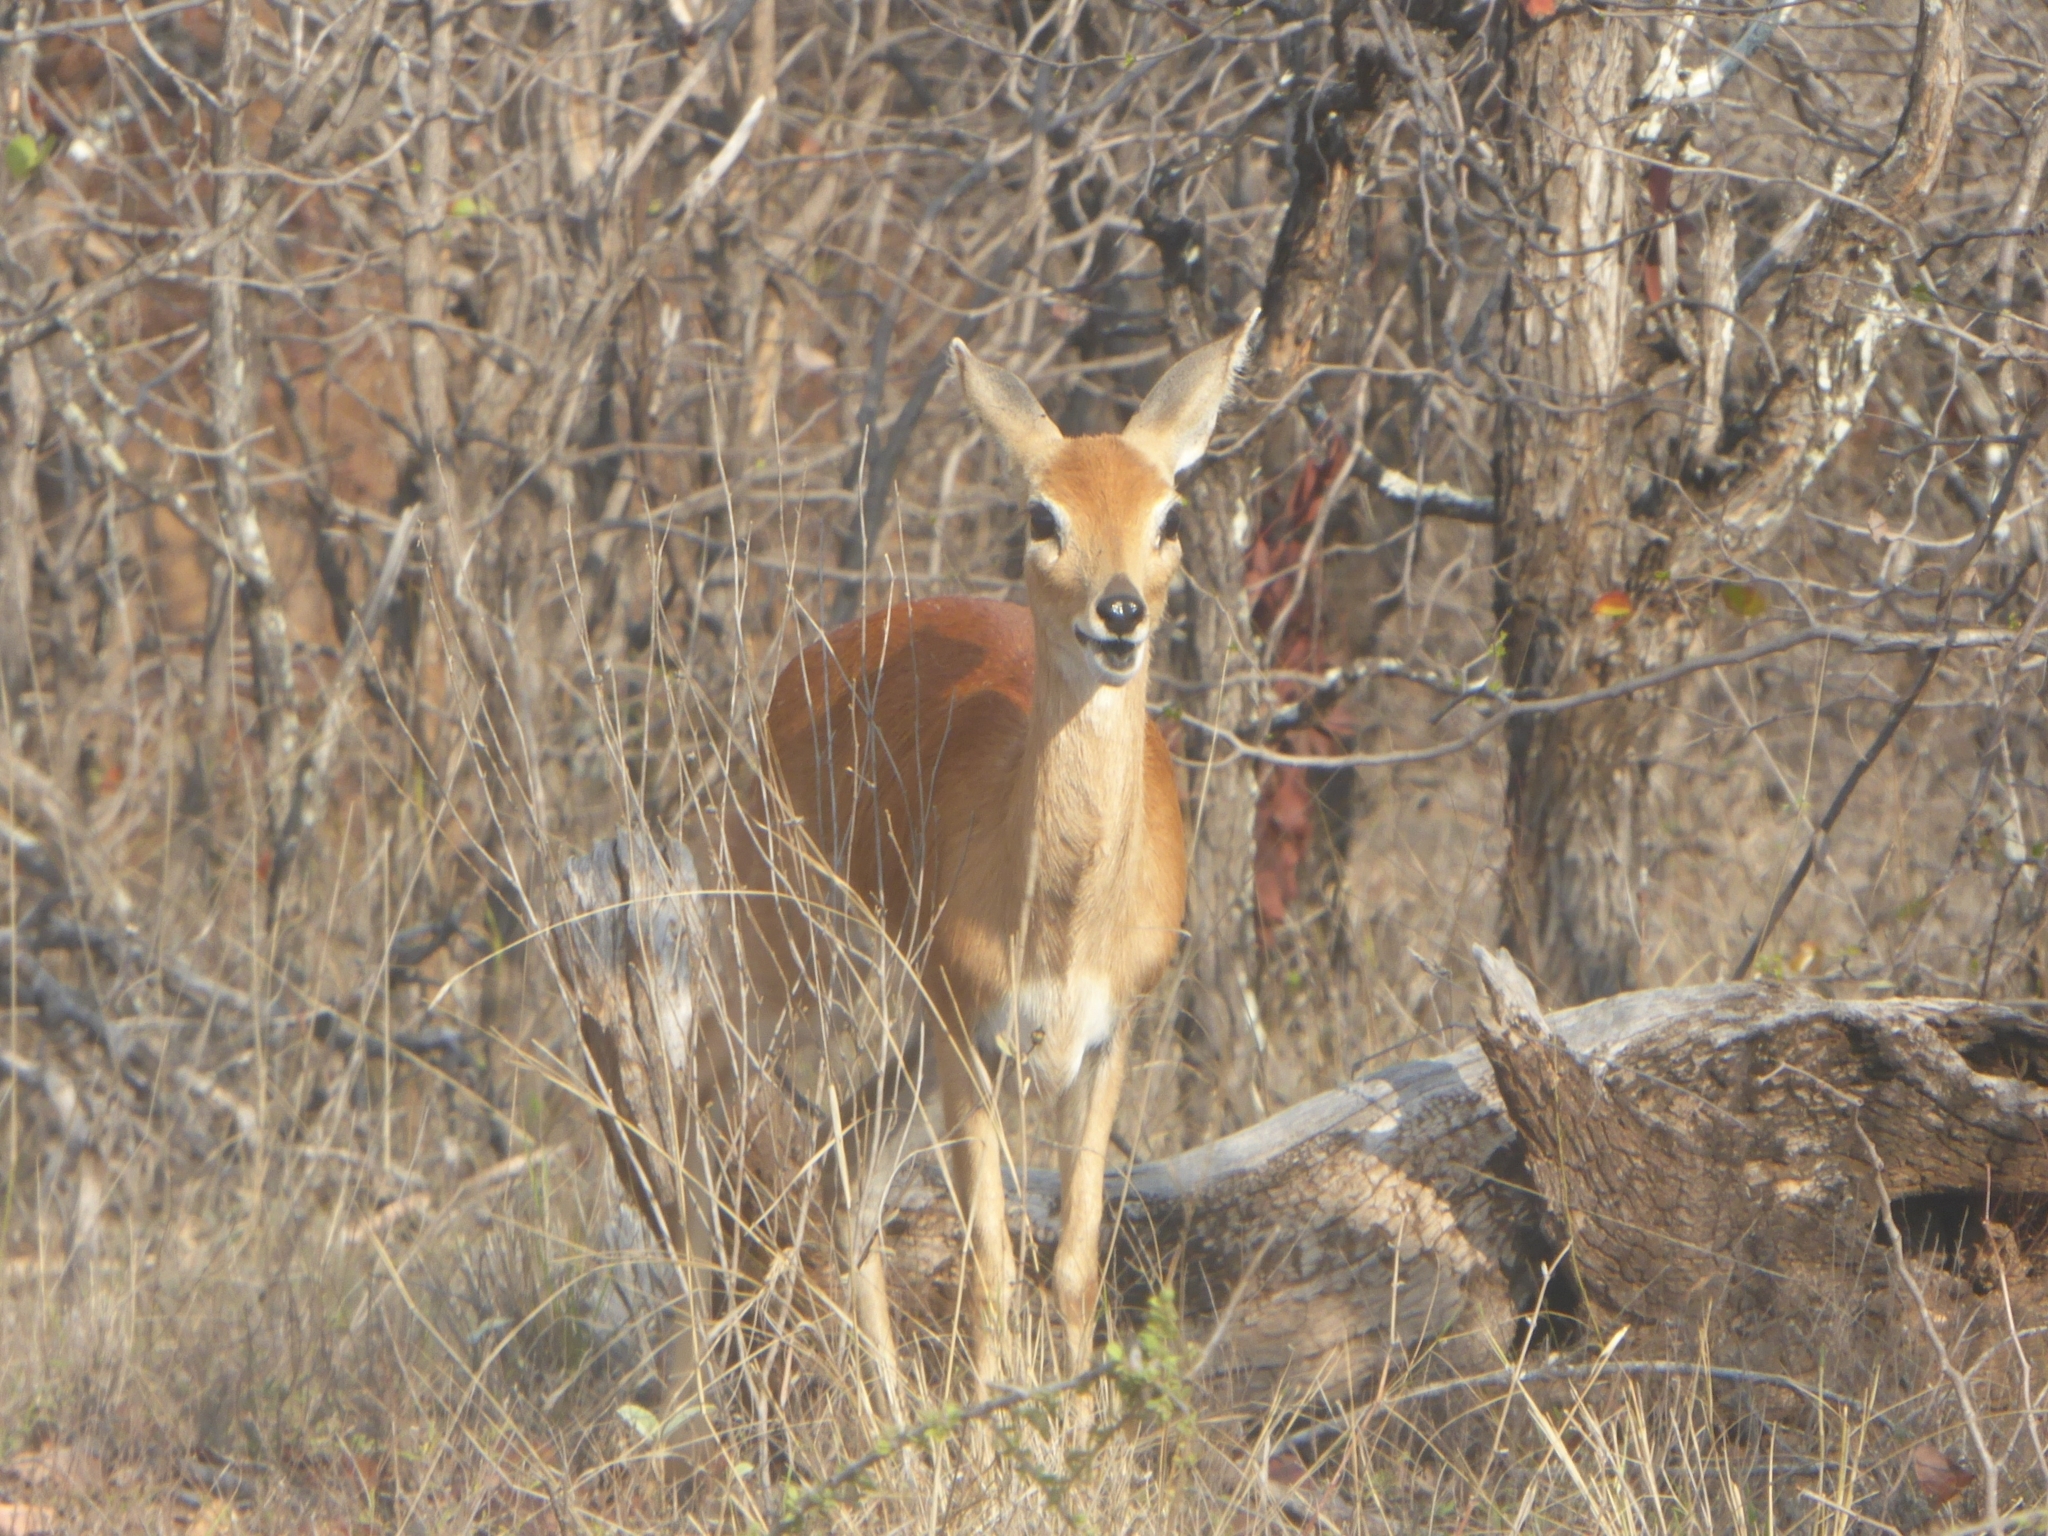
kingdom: Animalia
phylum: Chordata
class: Mammalia
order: Artiodactyla
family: Bovidae
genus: Raphicerus
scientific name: Raphicerus campestris
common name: Steenbok
